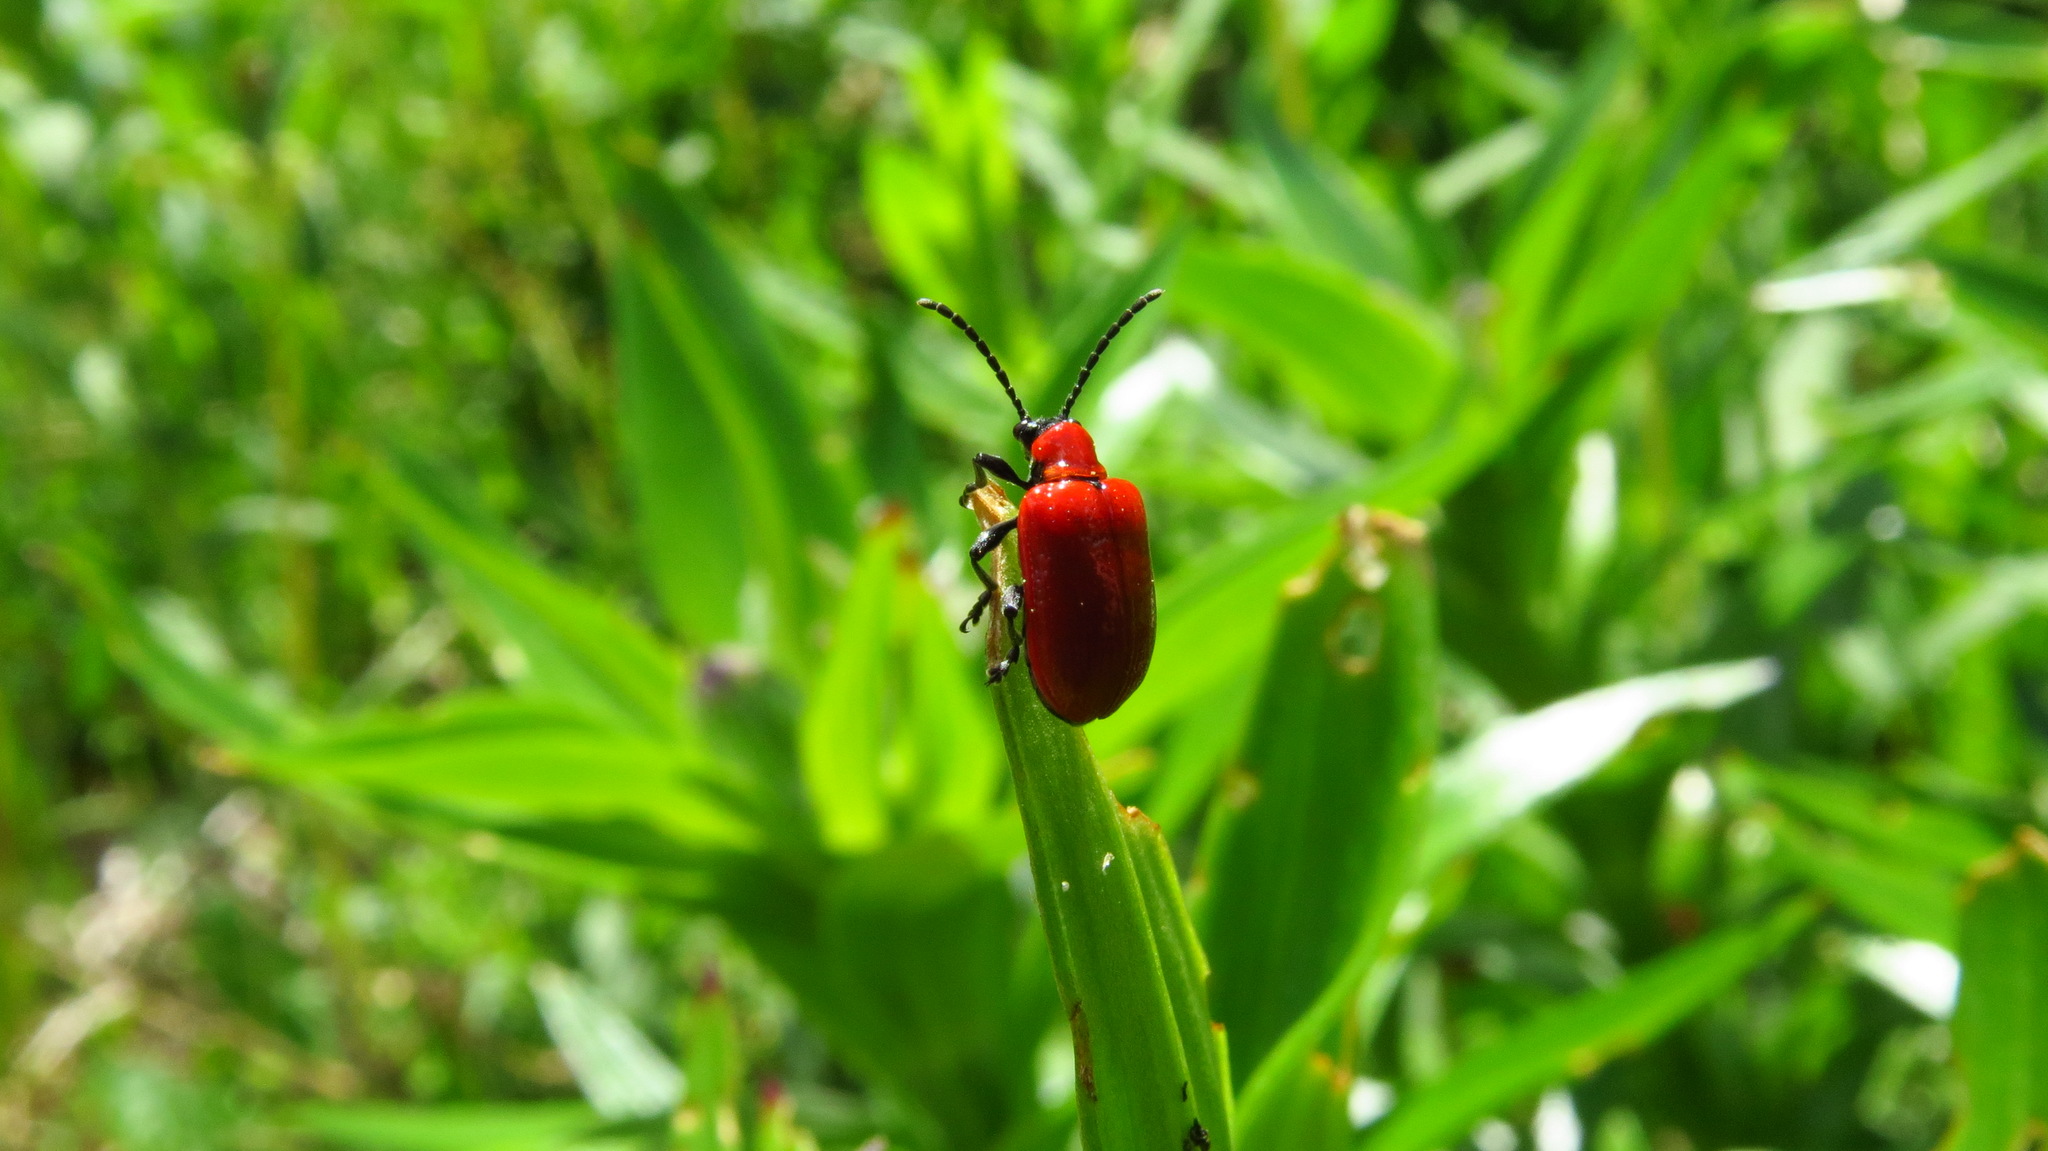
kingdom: Animalia
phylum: Arthropoda
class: Insecta
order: Coleoptera
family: Chrysomelidae
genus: Lilioceris
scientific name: Lilioceris lilii
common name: Lily beetle
